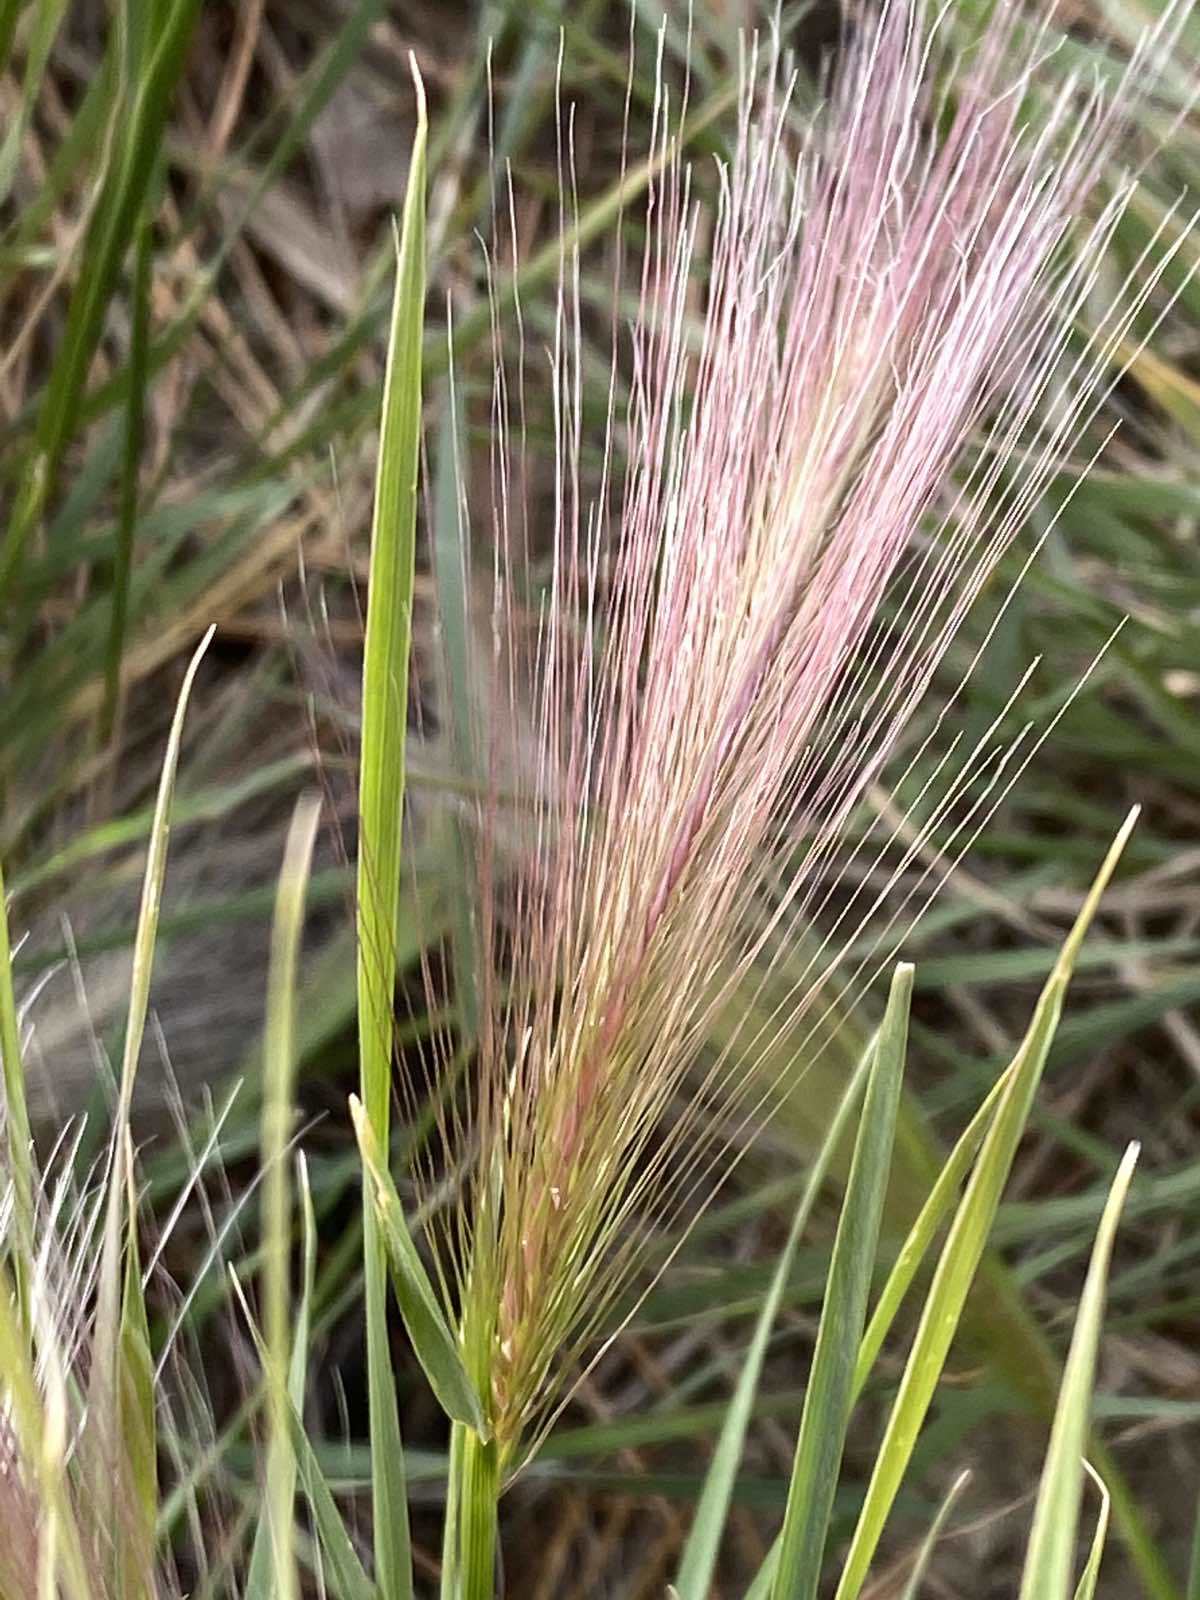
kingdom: Plantae
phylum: Tracheophyta
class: Liliopsida
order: Poales
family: Poaceae
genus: Hordeum
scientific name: Hordeum jubatum
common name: Foxtail barley
